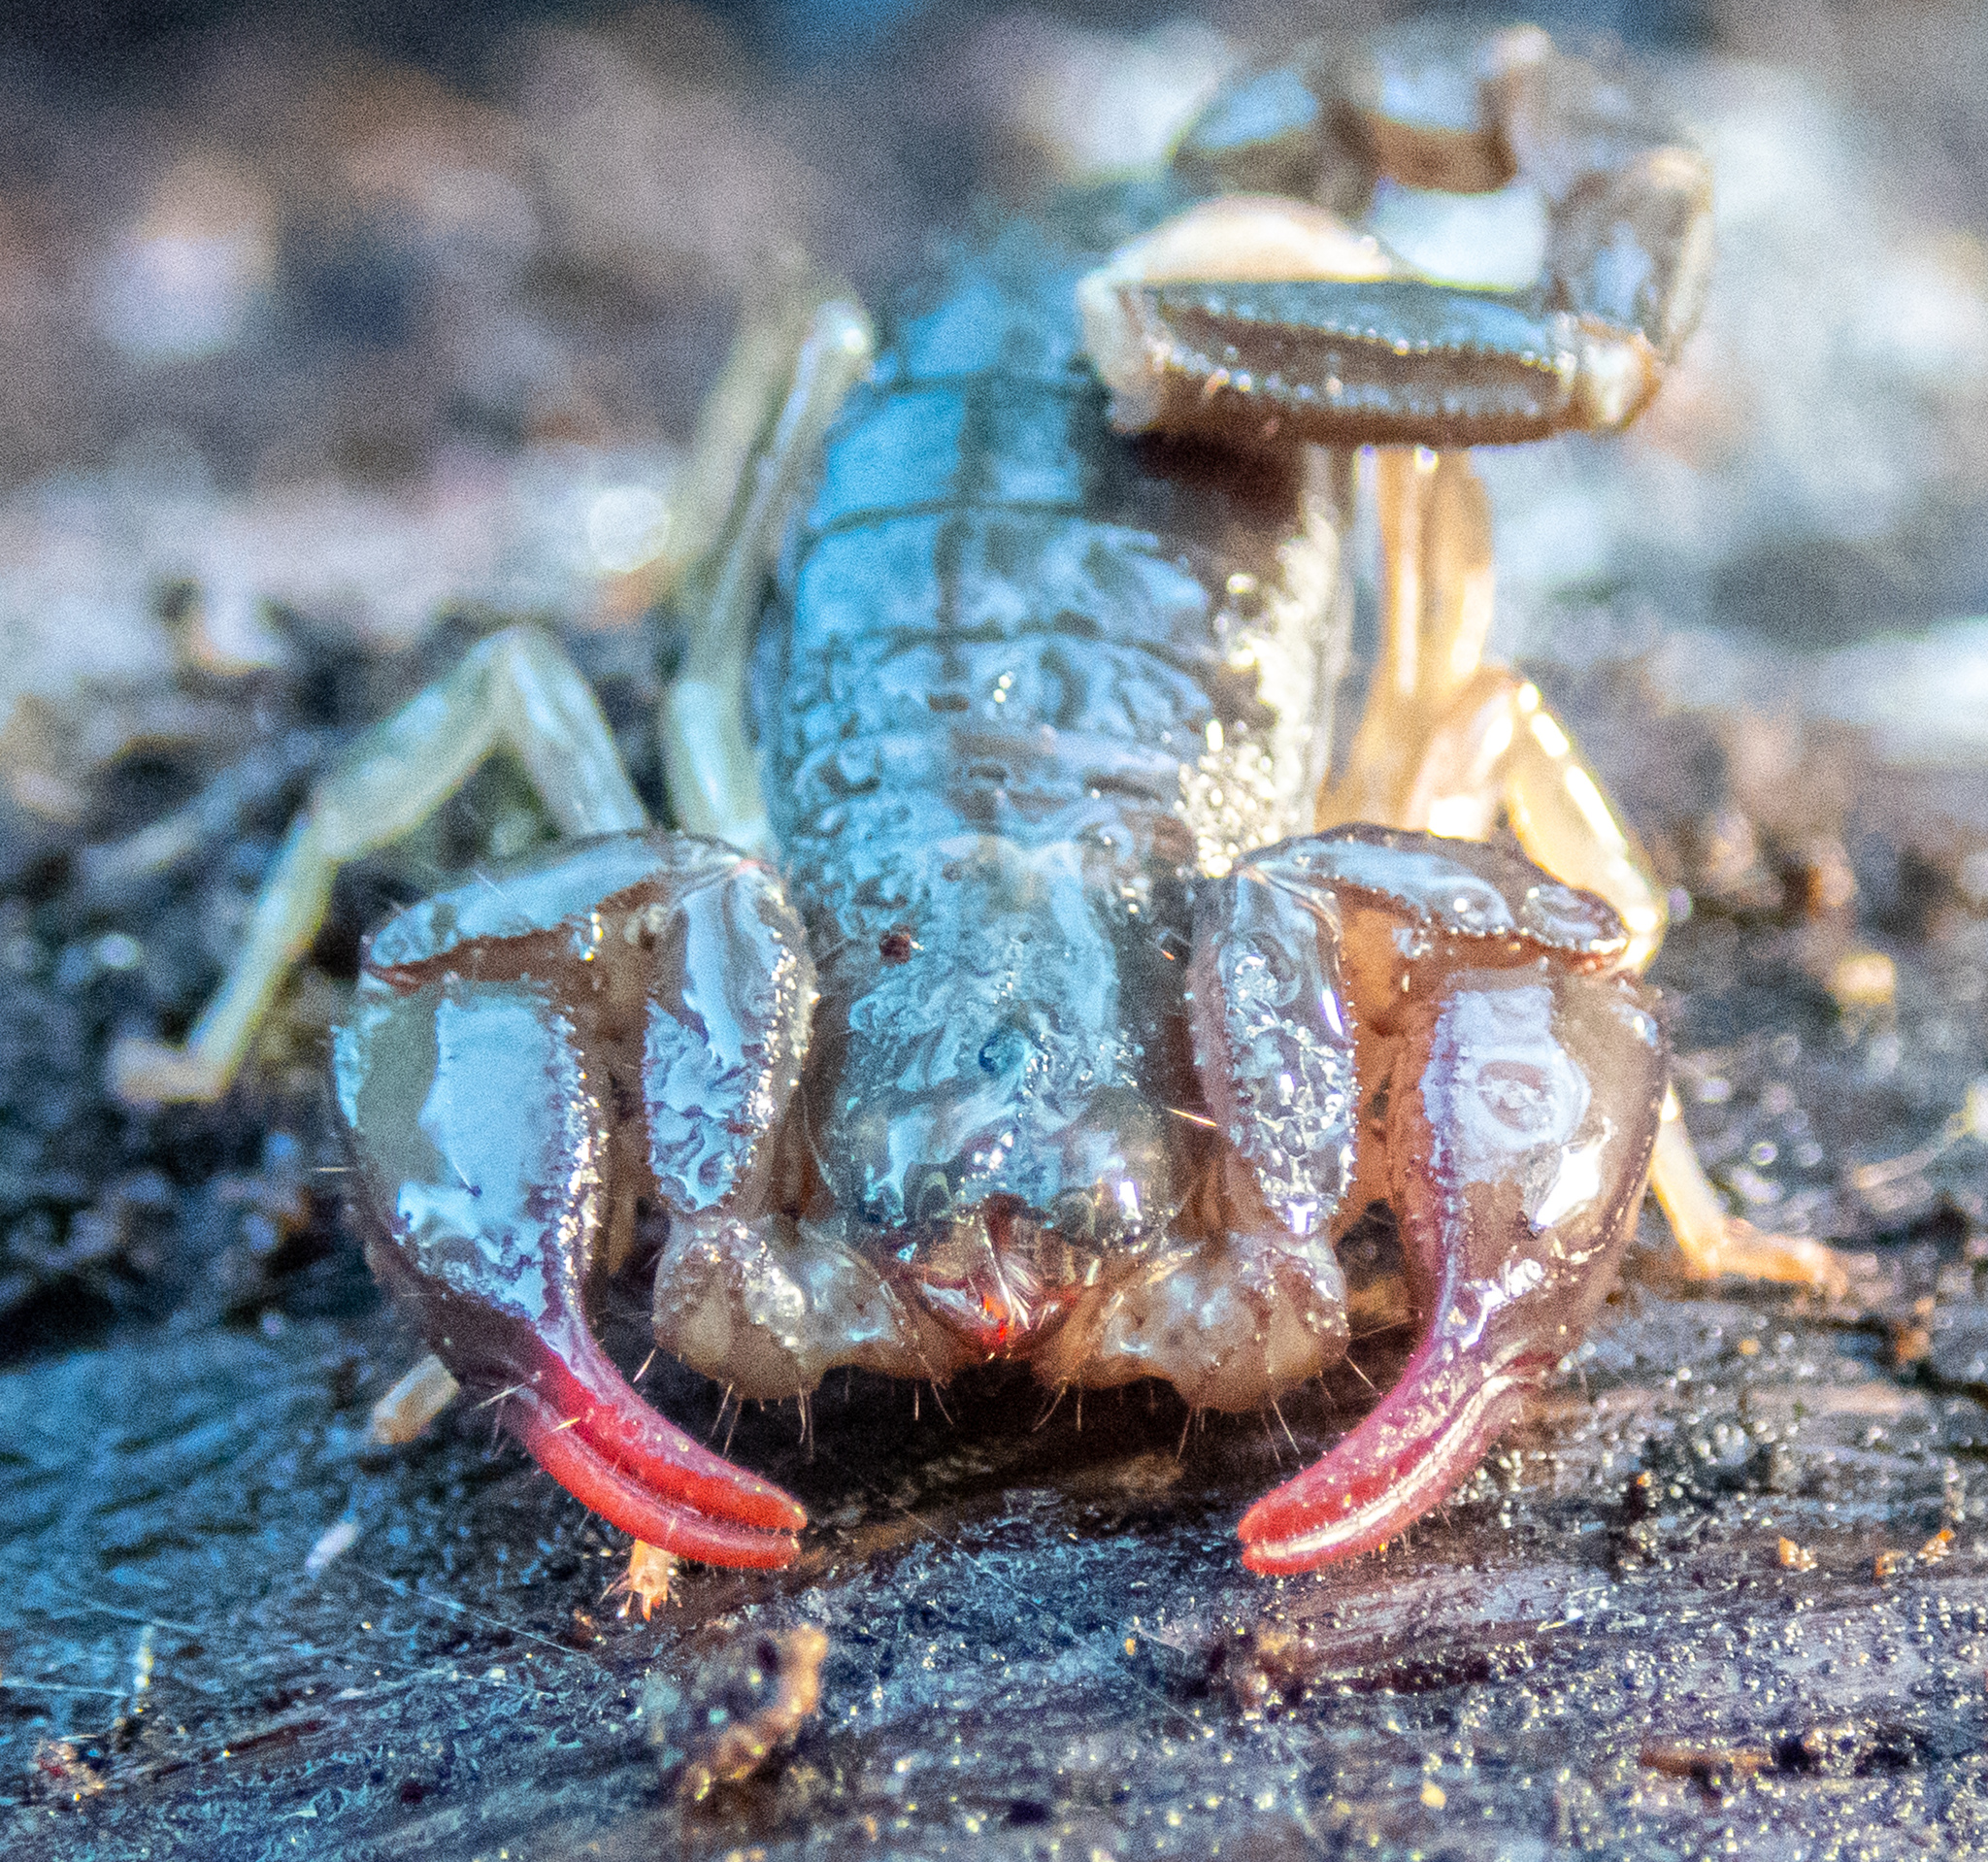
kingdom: Animalia
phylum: Arthropoda
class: Arachnida
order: Scorpiones
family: Chactidae
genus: Uroctonus
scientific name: Uroctonus mordax
